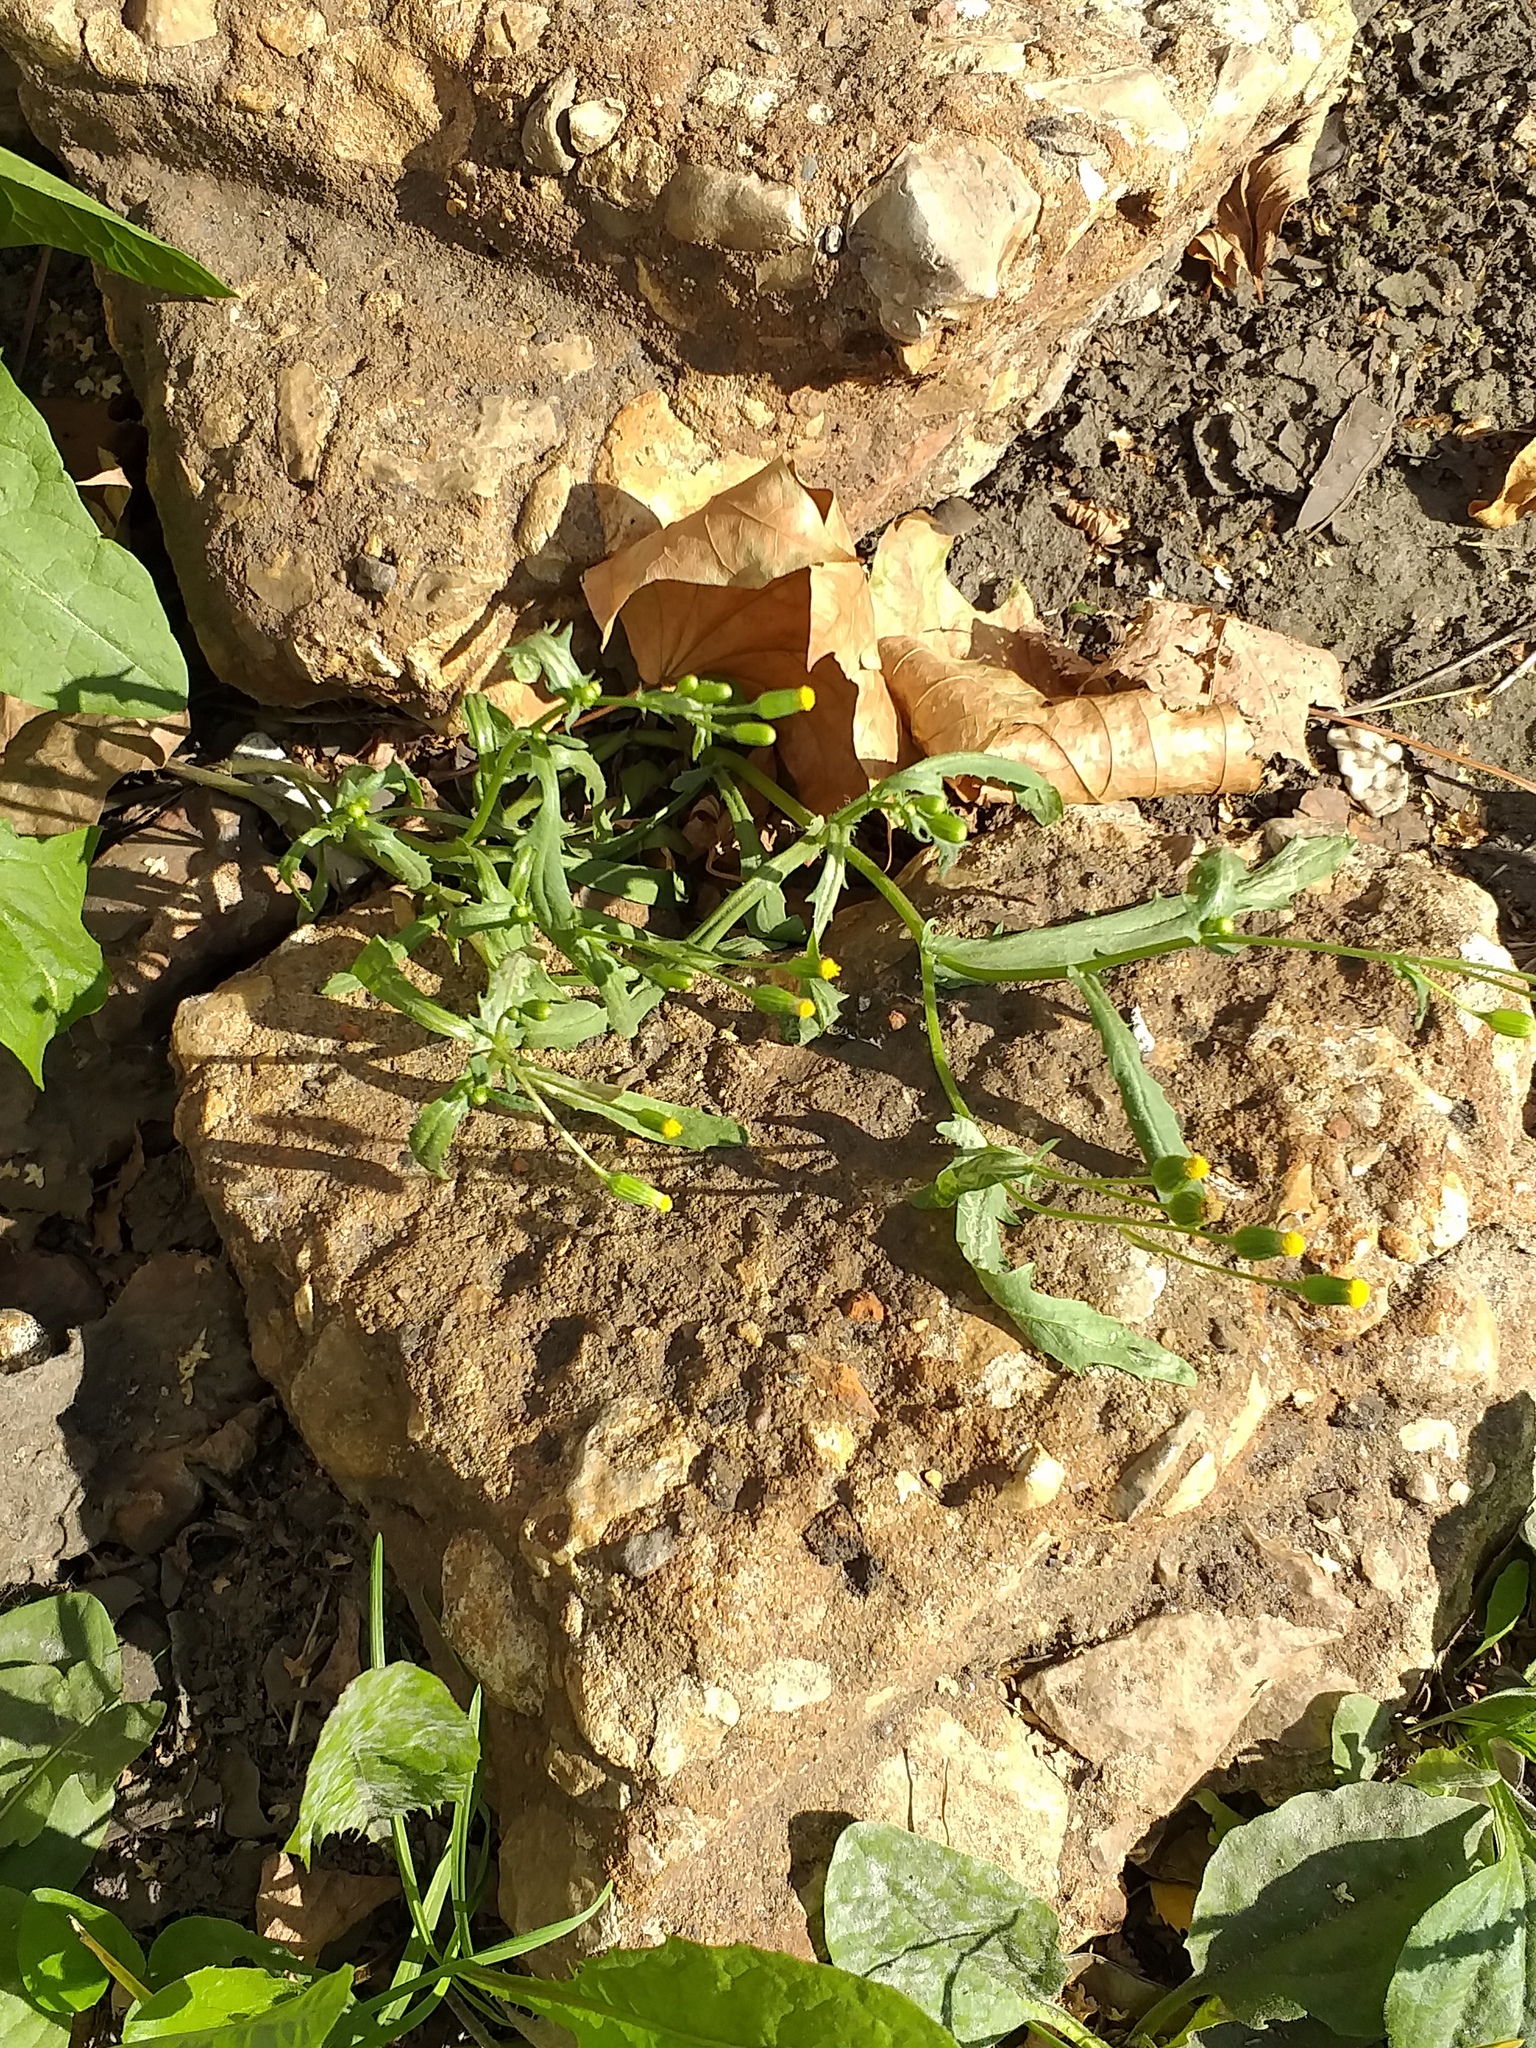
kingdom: Plantae
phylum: Tracheophyta
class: Magnoliopsida
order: Asterales
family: Asteraceae
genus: Senecio
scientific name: Senecio dubitabilis
